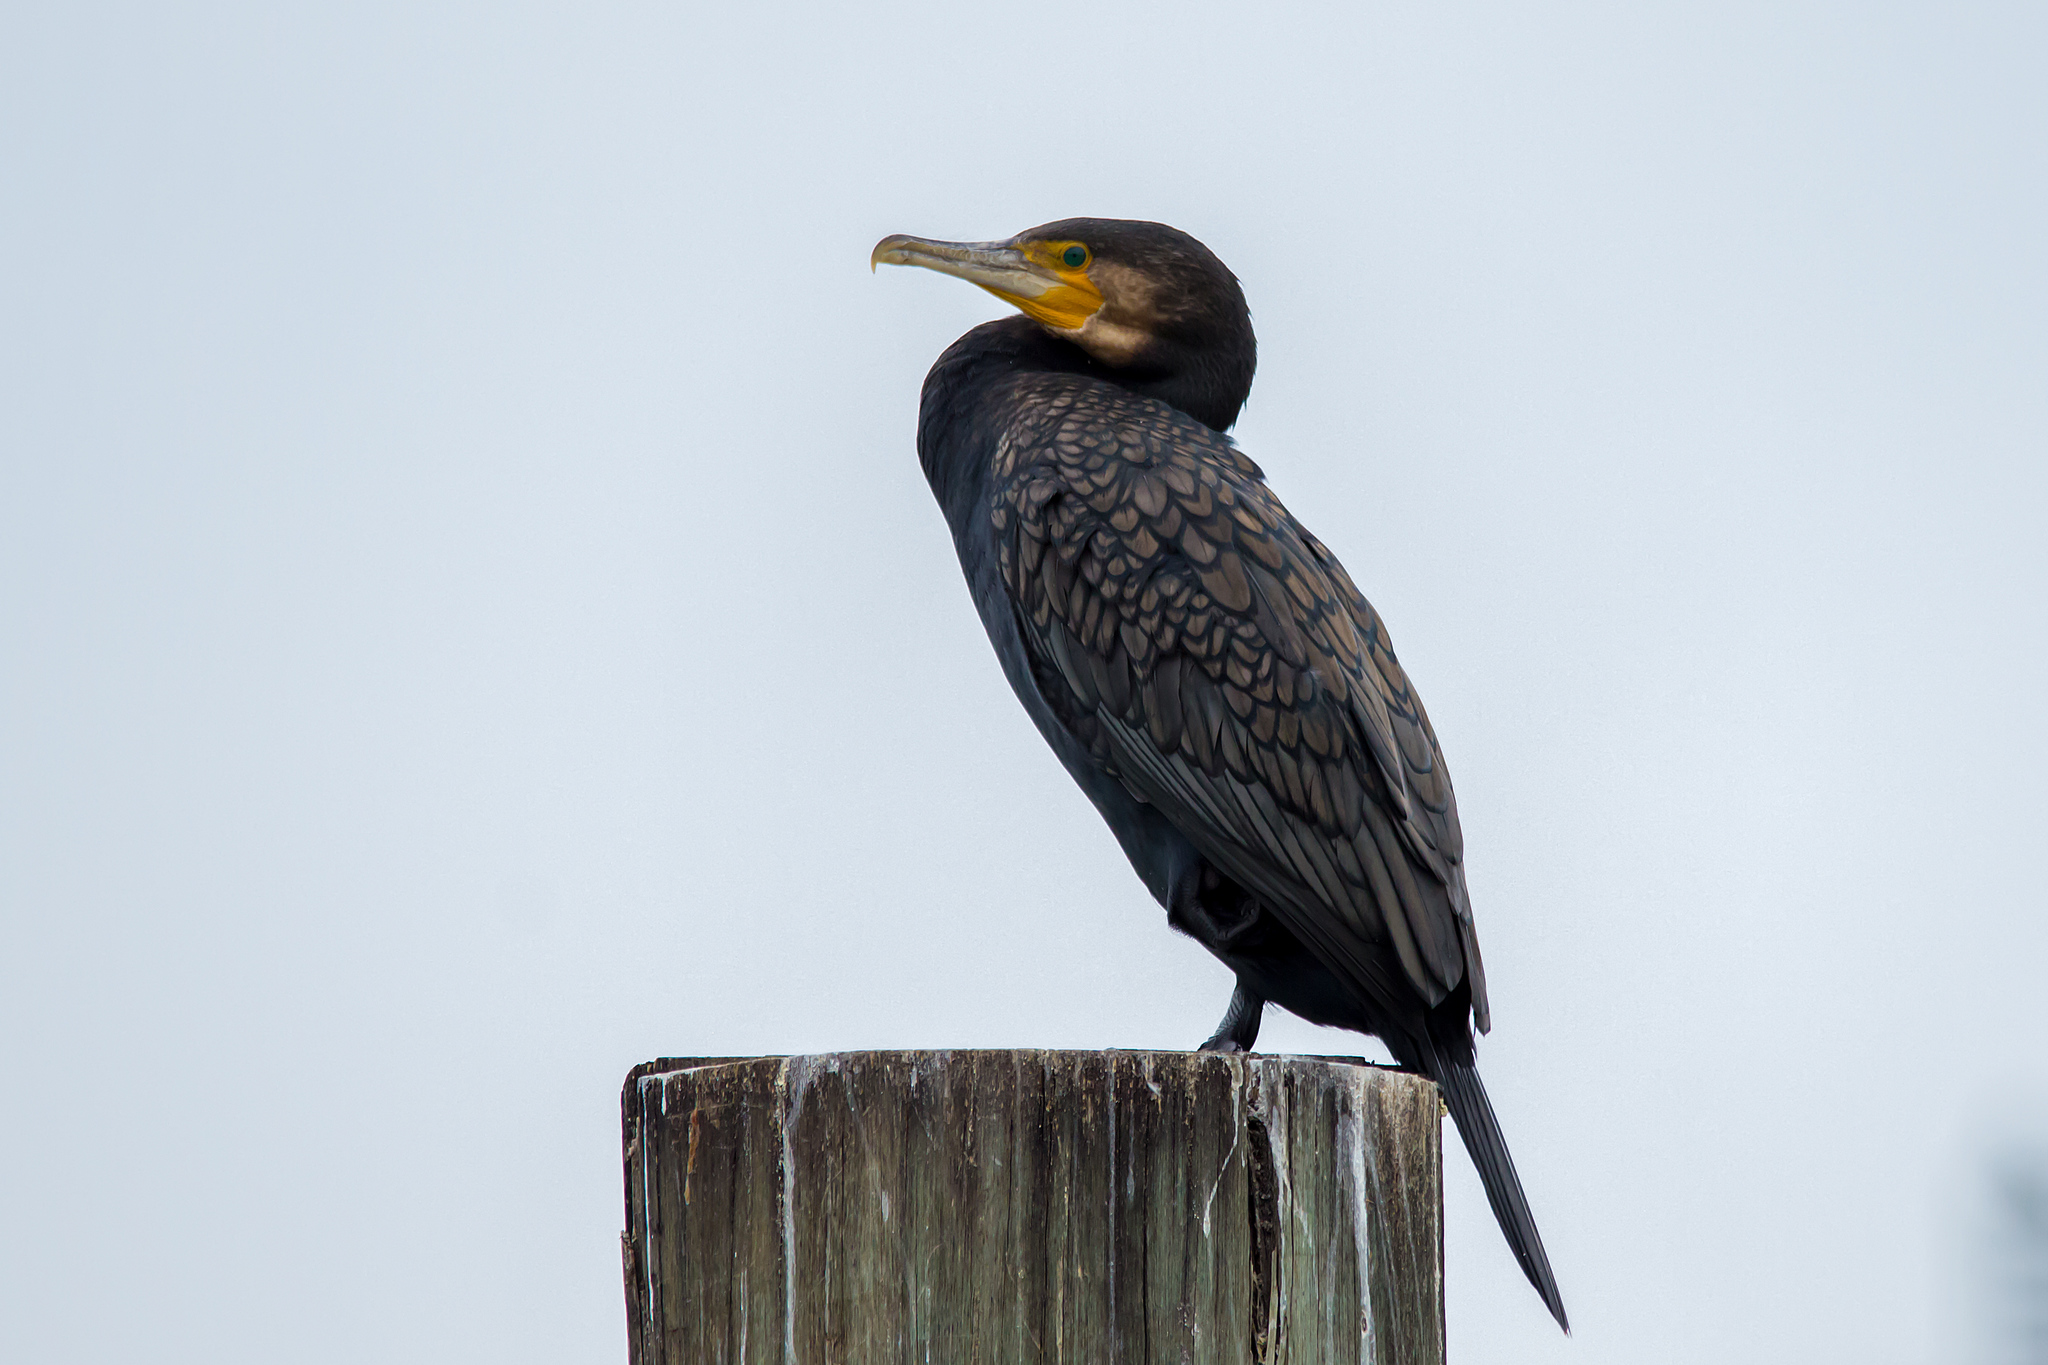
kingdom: Animalia
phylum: Chordata
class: Aves
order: Suliformes
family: Phalacrocoracidae
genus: Phalacrocorax
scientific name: Phalacrocorax carbo
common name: Great cormorant
